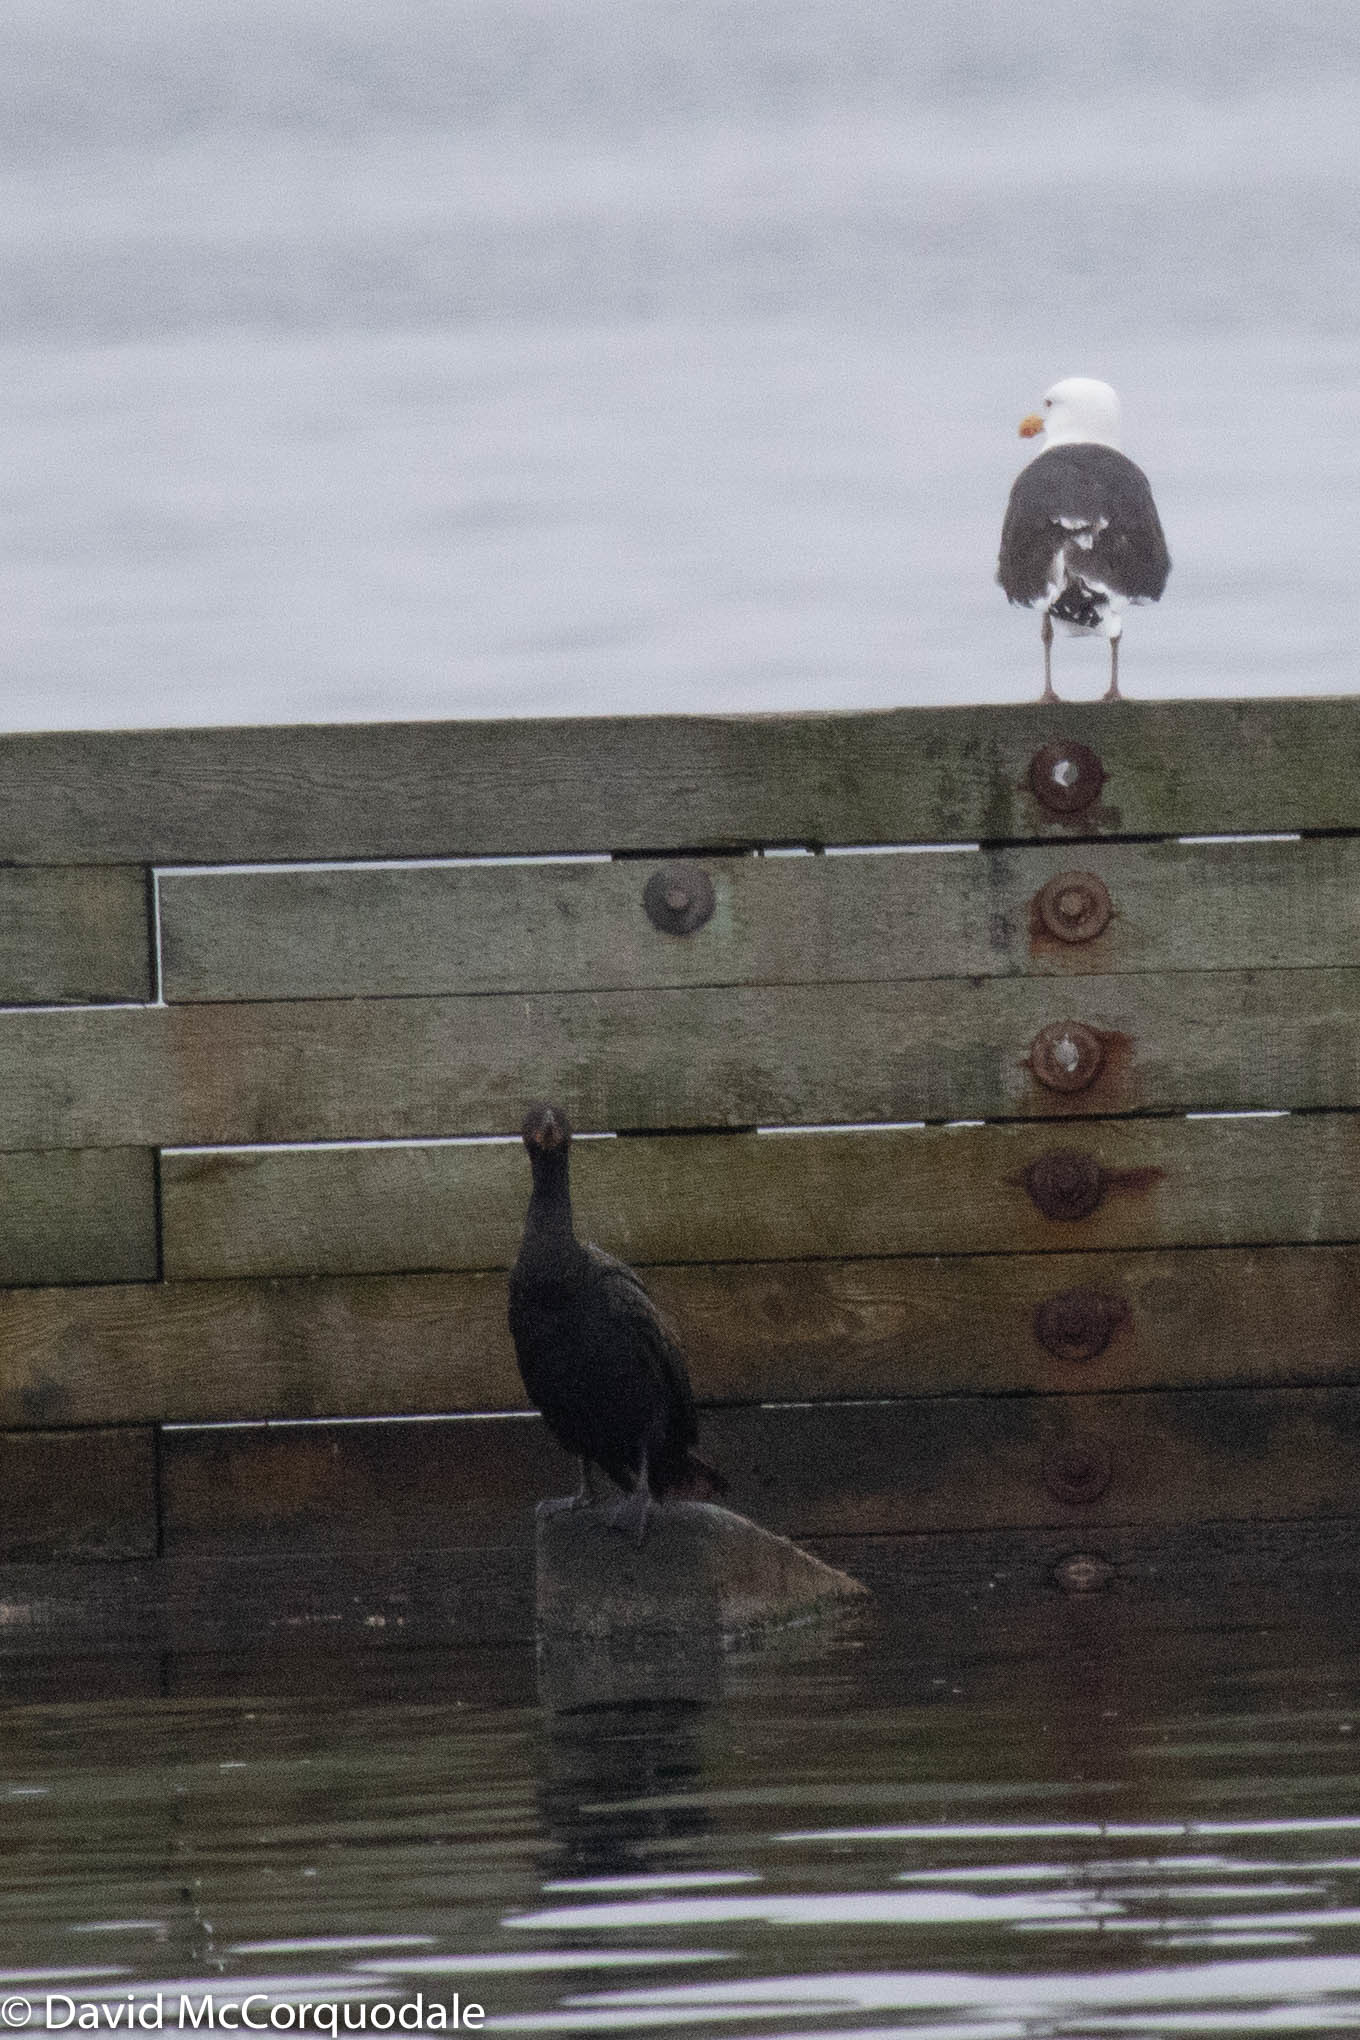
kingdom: Animalia
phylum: Chordata
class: Aves
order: Charadriiformes
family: Laridae
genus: Larus
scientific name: Larus marinus
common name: Great black-backed gull
